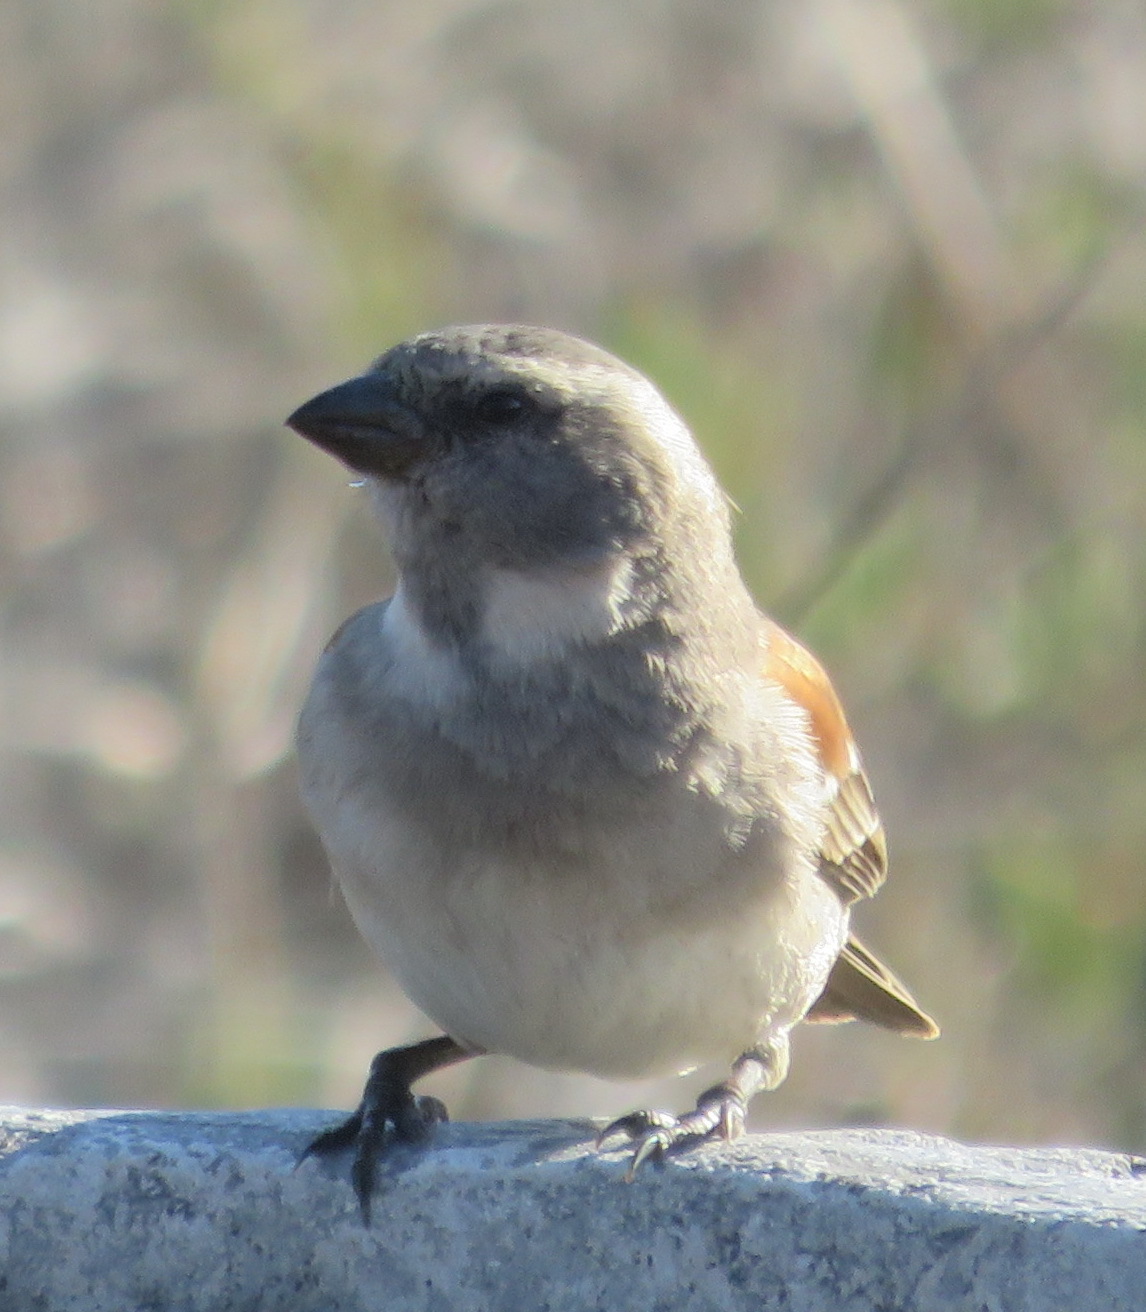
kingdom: Animalia
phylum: Chordata
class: Aves
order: Passeriformes
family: Passeridae
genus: Passer
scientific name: Passer melanurus
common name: Cape sparrow
